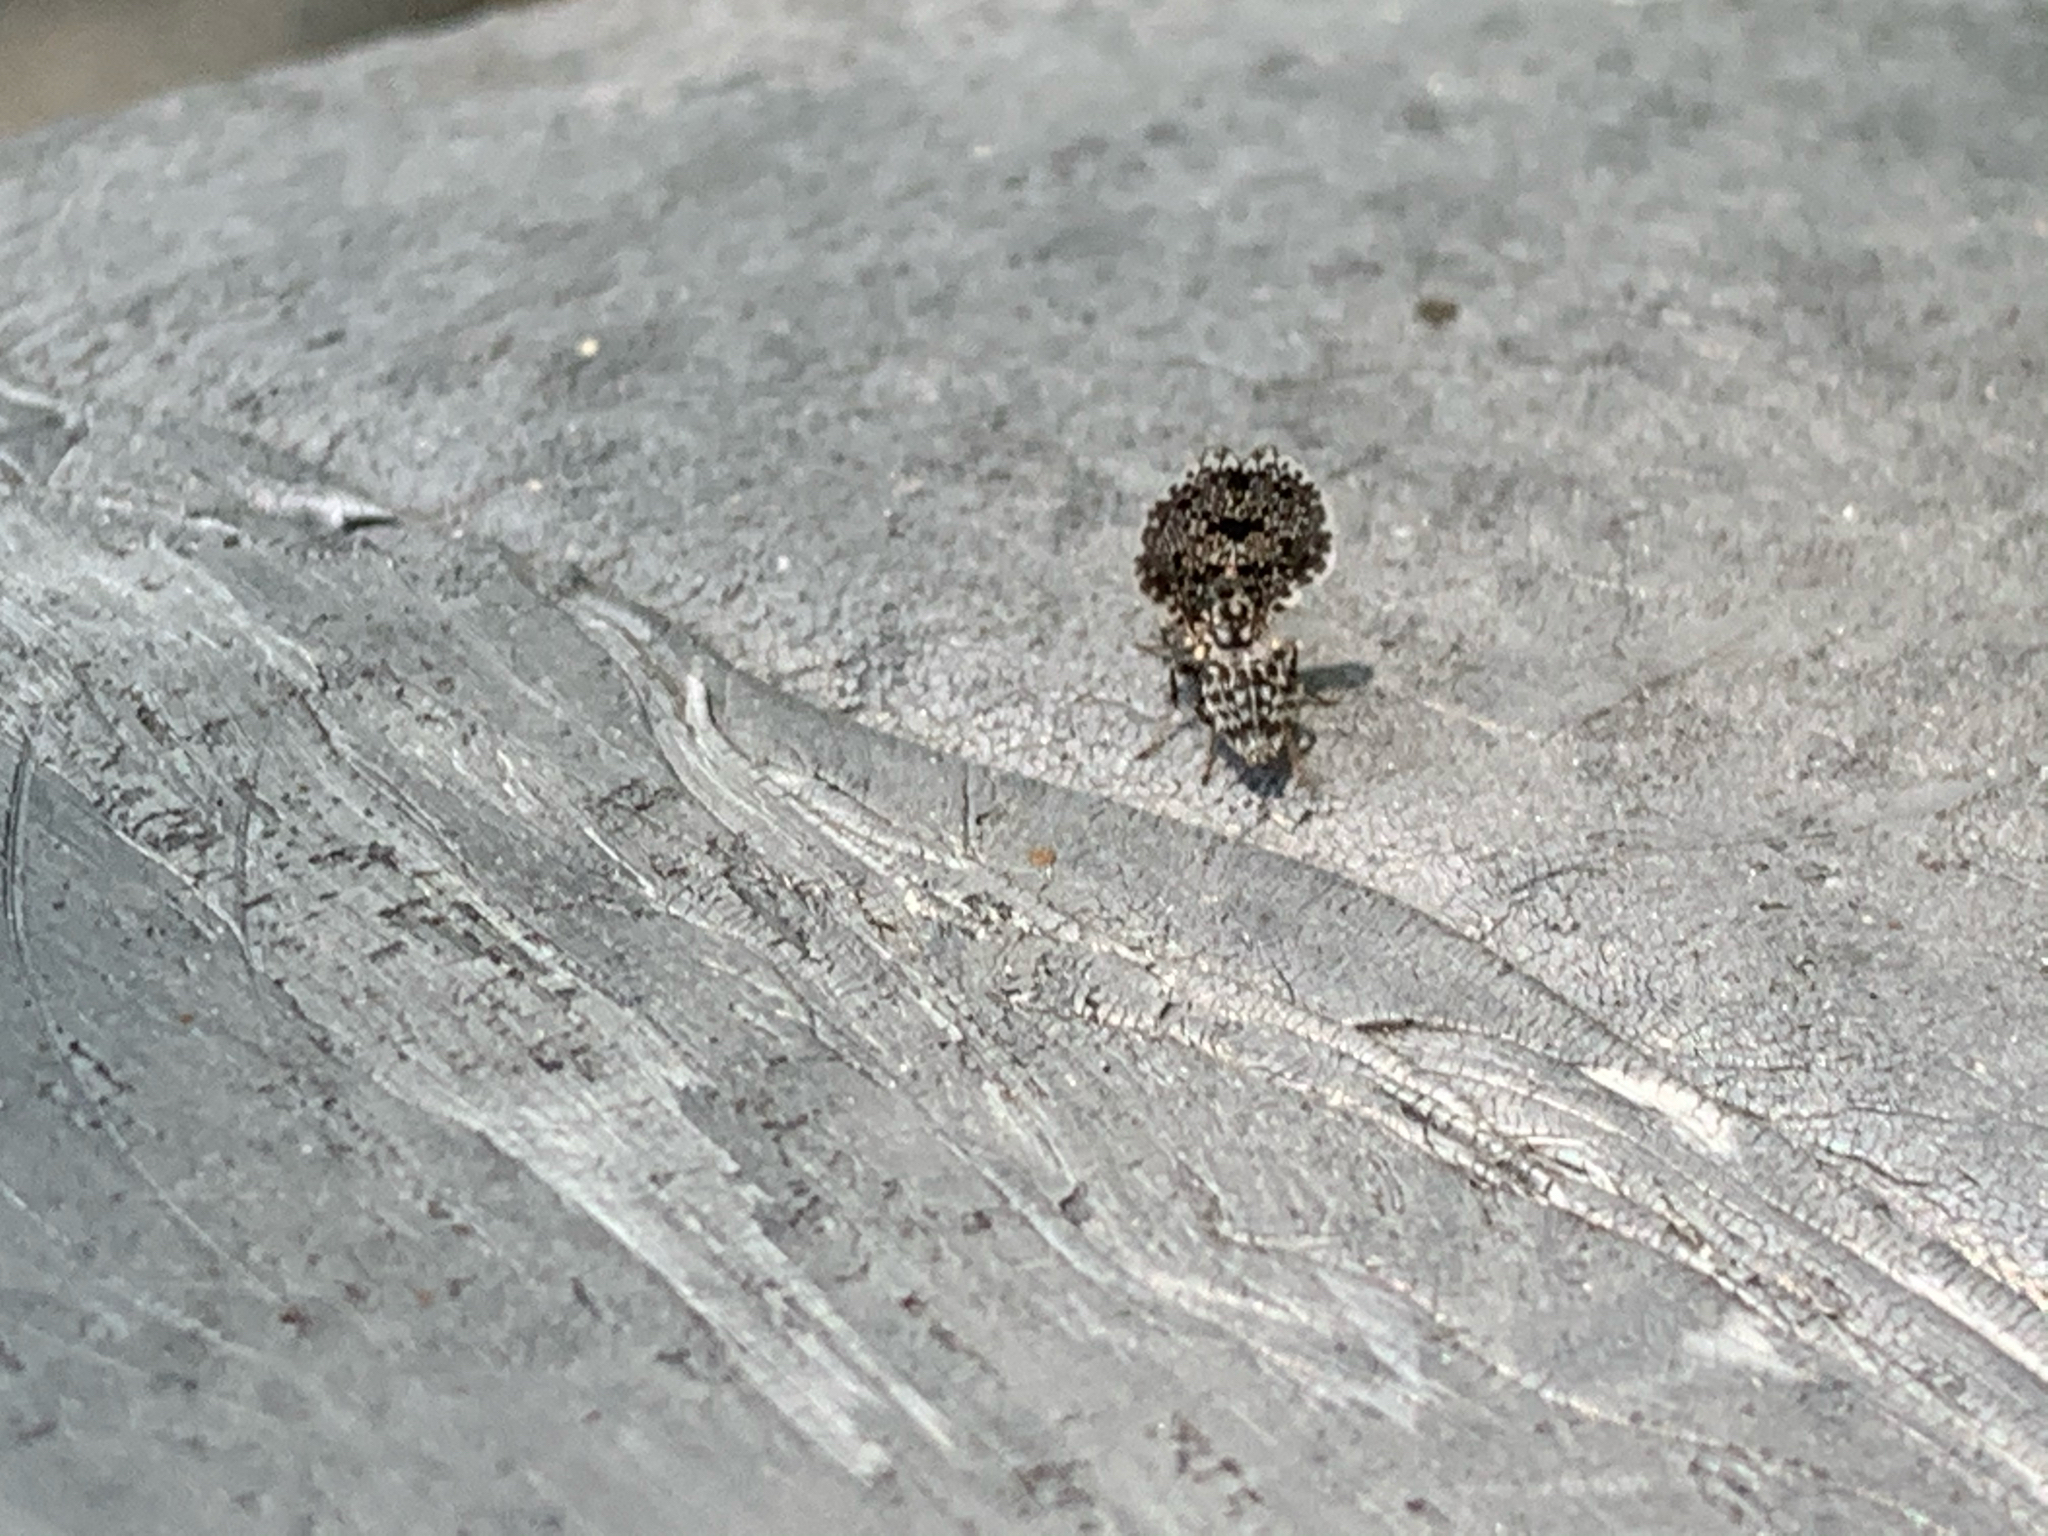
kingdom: Animalia
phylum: Arthropoda
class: Insecta
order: Diptera
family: Ulidiidae
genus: Callopistromyia
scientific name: Callopistromyia annulipes
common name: Peacock fly
